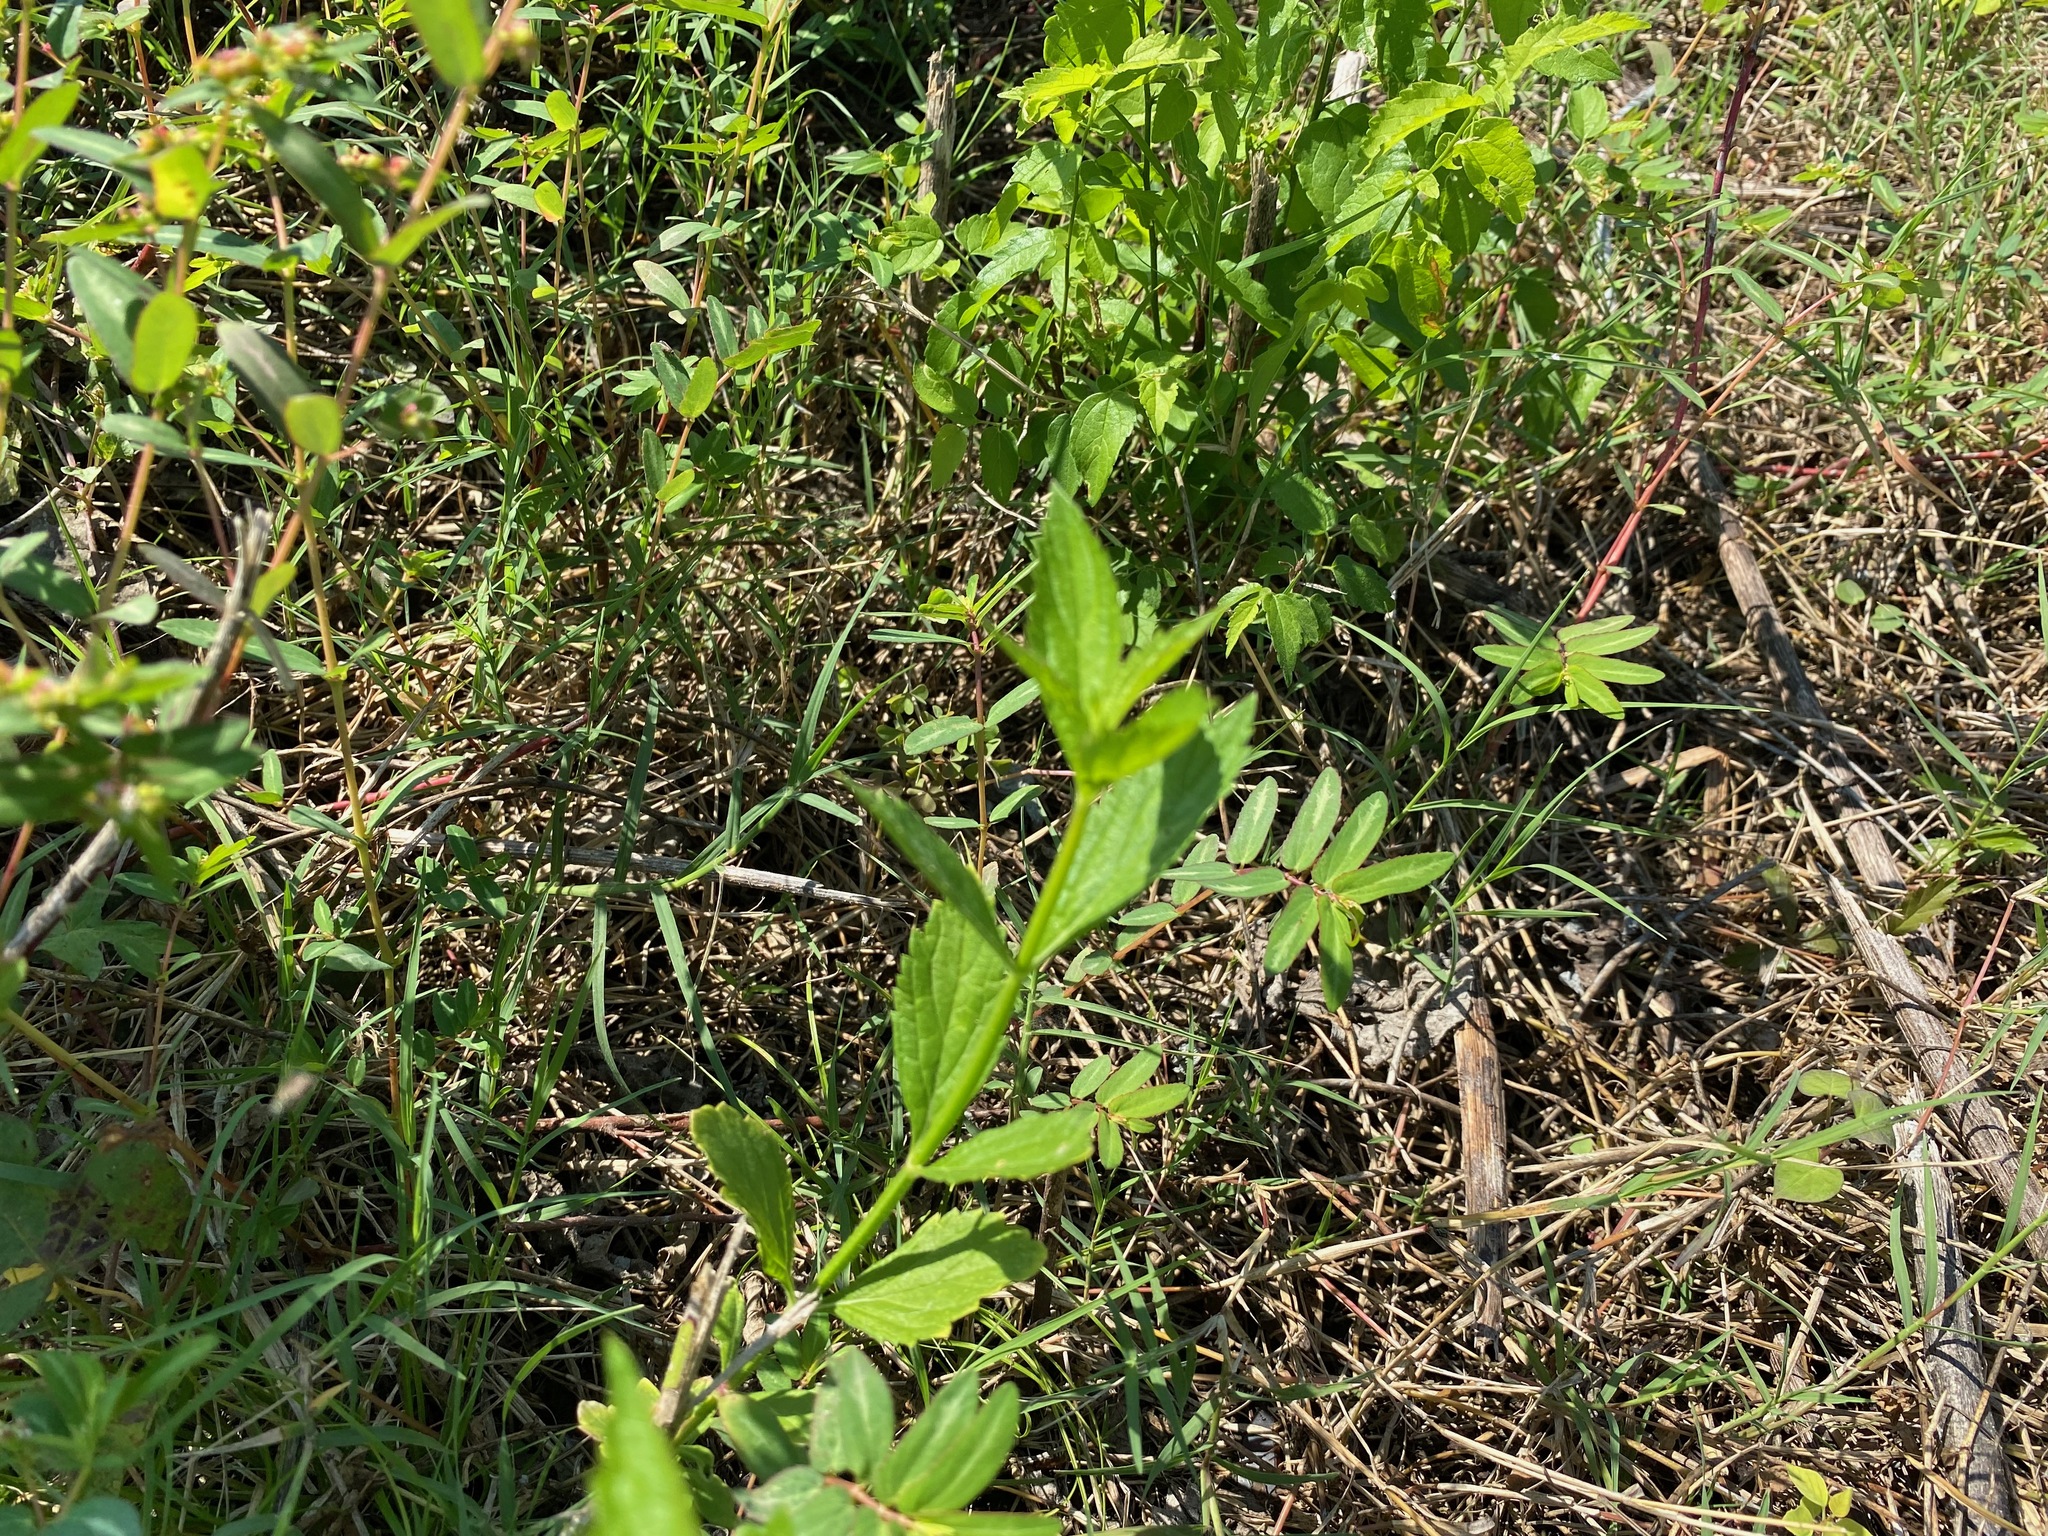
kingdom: Plantae
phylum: Tracheophyta
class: Magnoliopsida
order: Lamiales
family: Verbenaceae
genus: Verbena
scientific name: Verbena brasiliensis
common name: Brazilian vervain
